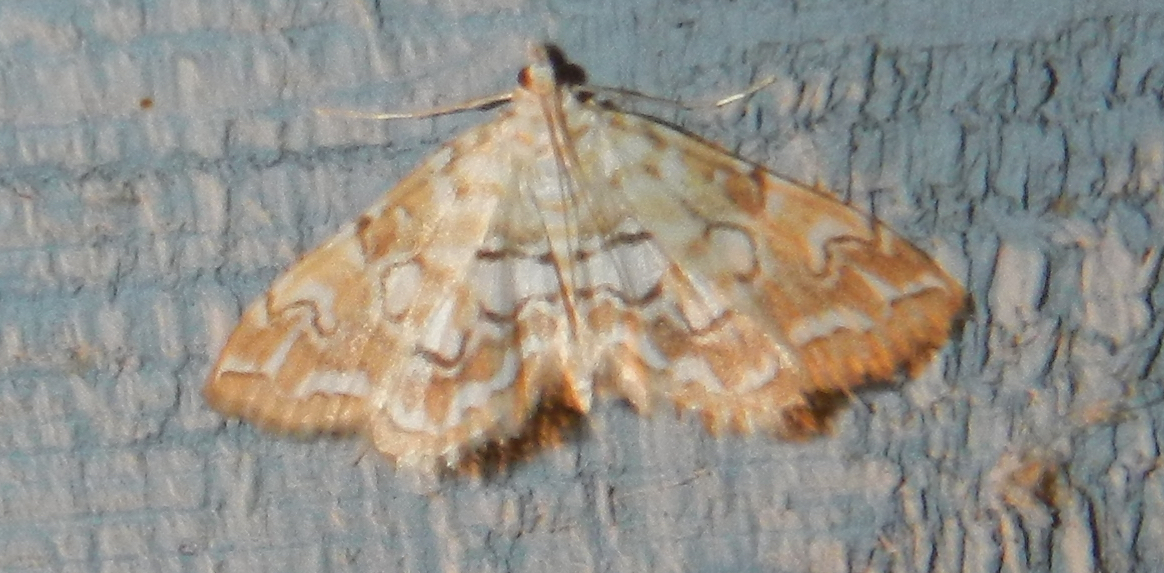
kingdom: Animalia
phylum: Arthropoda
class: Insecta
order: Lepidoptera
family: Crambidae
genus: Elophila
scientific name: Elophila icciusalis
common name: Pondside pyralid moth
